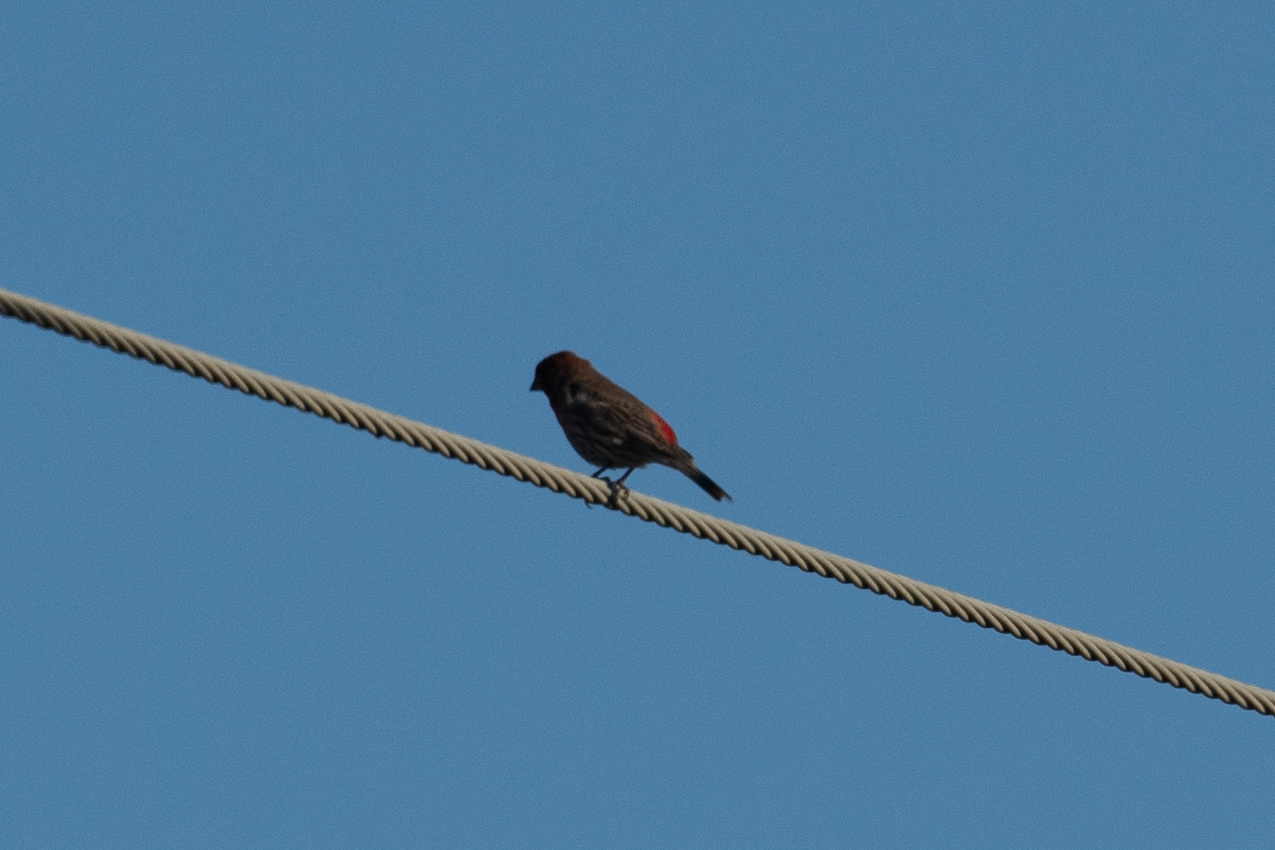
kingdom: Animalia
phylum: Chordata
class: Aves
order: Passeriformes
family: Fringillidae
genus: Haemorhous
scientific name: Haemorhous mexicanus
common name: House finch
